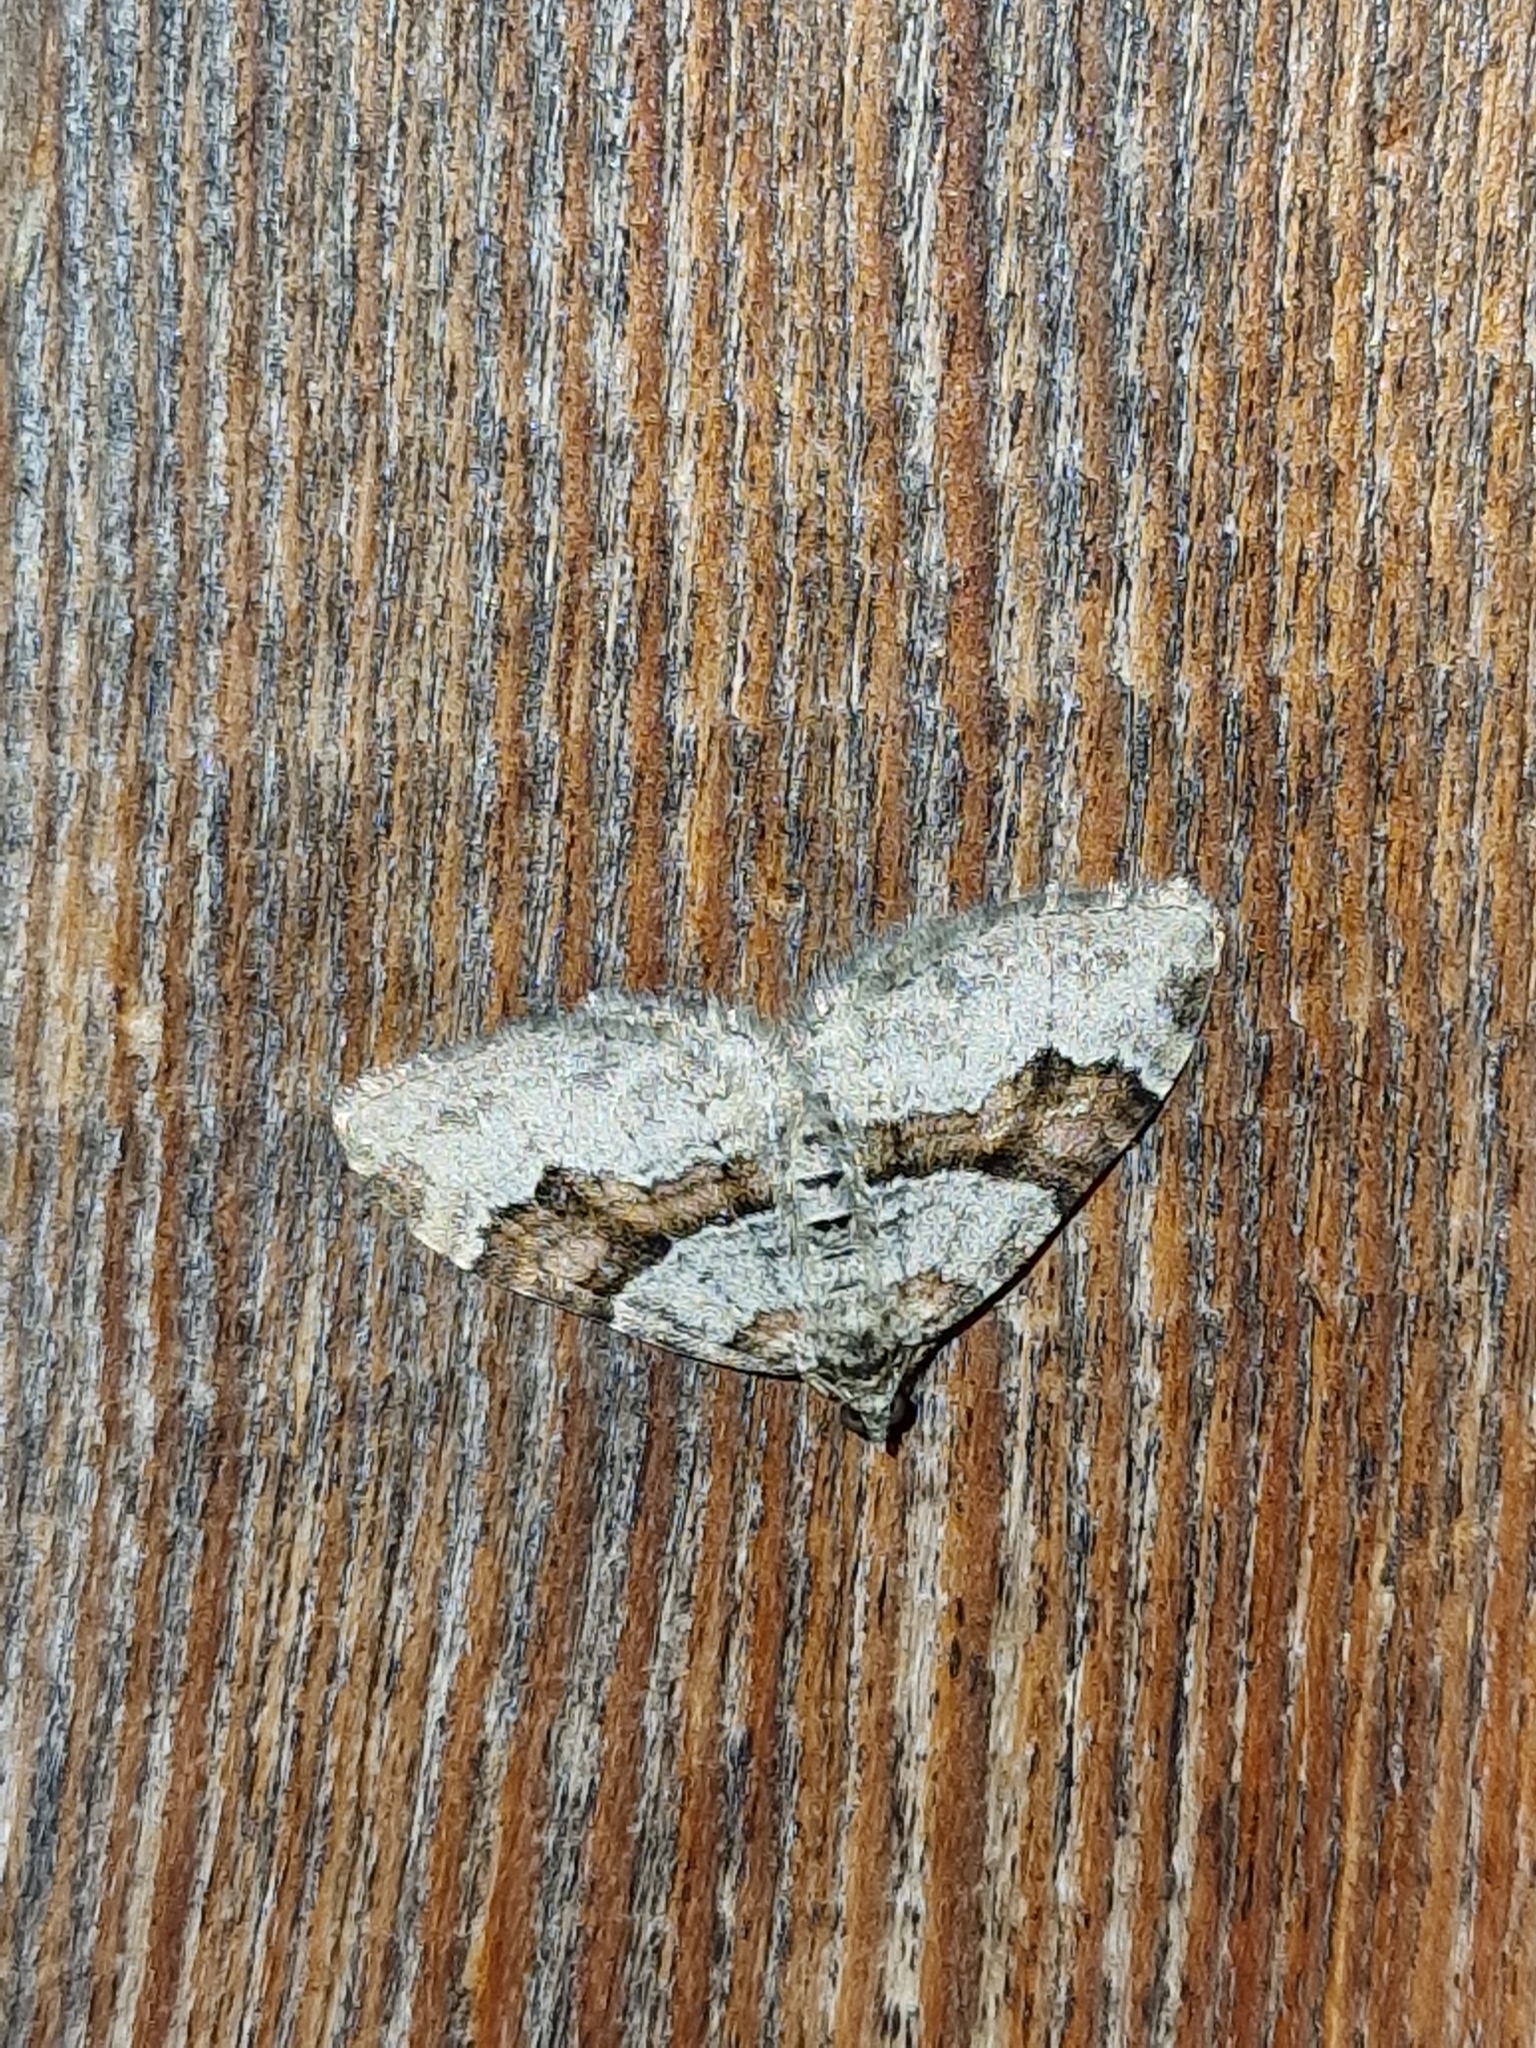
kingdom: Animalia
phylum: Arthropoda
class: Insecta
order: Lepidoptera
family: Geometridae
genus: Xanthorhoe
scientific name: Xanthorhoe designata
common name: Flame carpet
